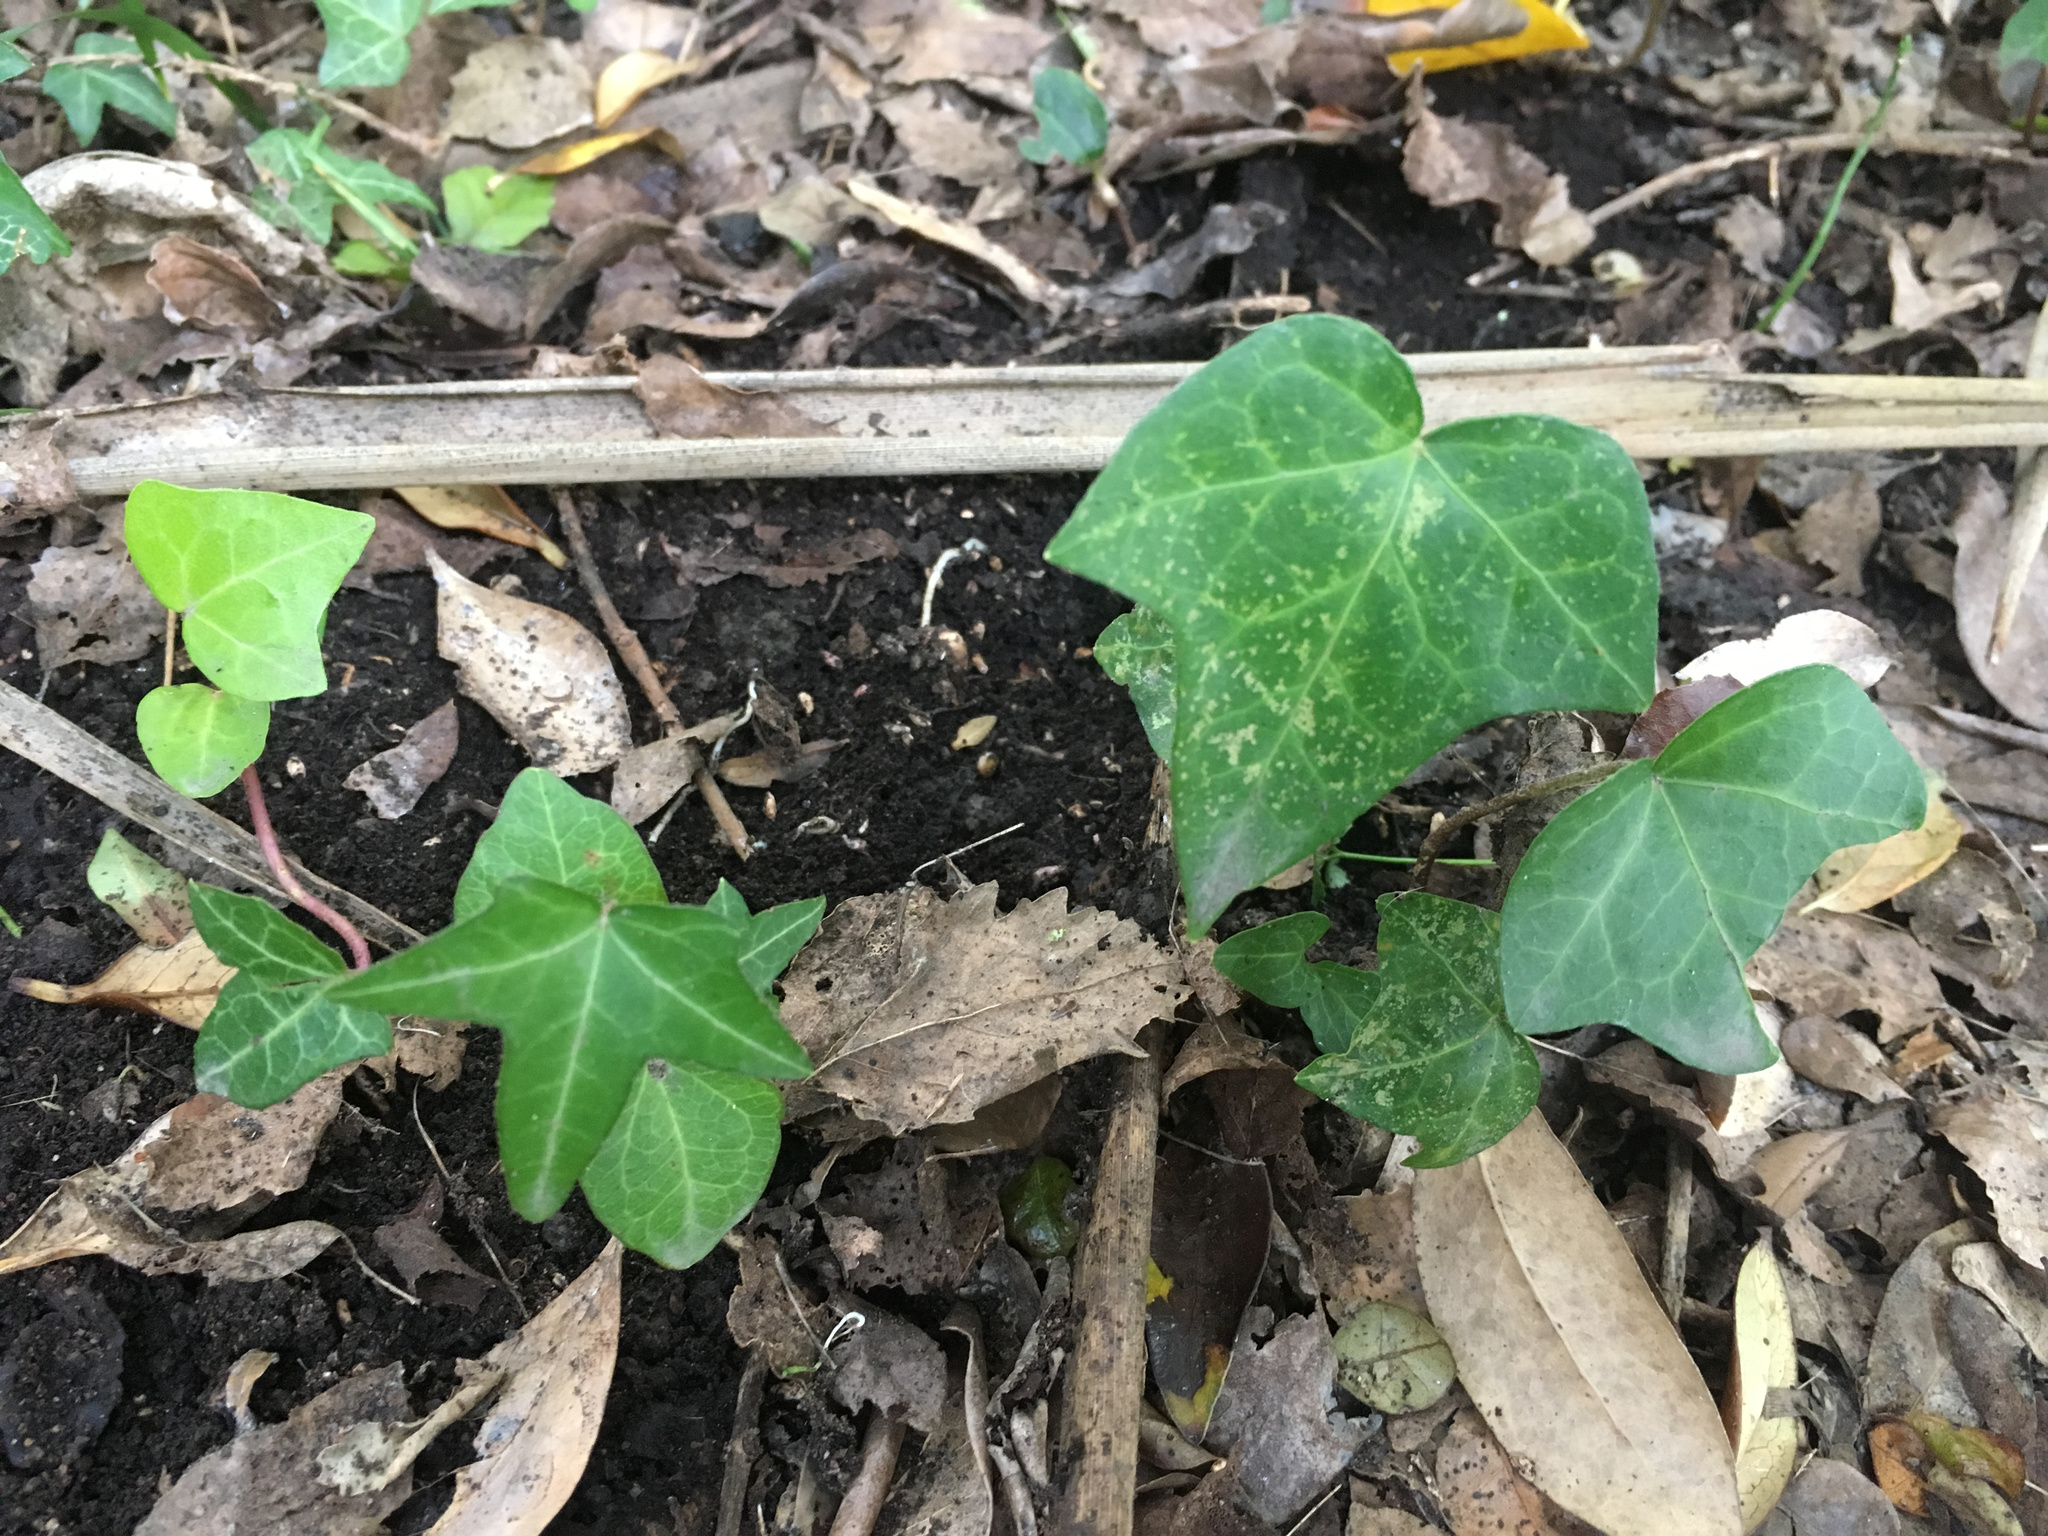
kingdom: Plantae
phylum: Tracheophyta
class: Magnoliopsida
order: Apiales
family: Araliaceae
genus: Hedera
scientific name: Hedera helix
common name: Ivy
